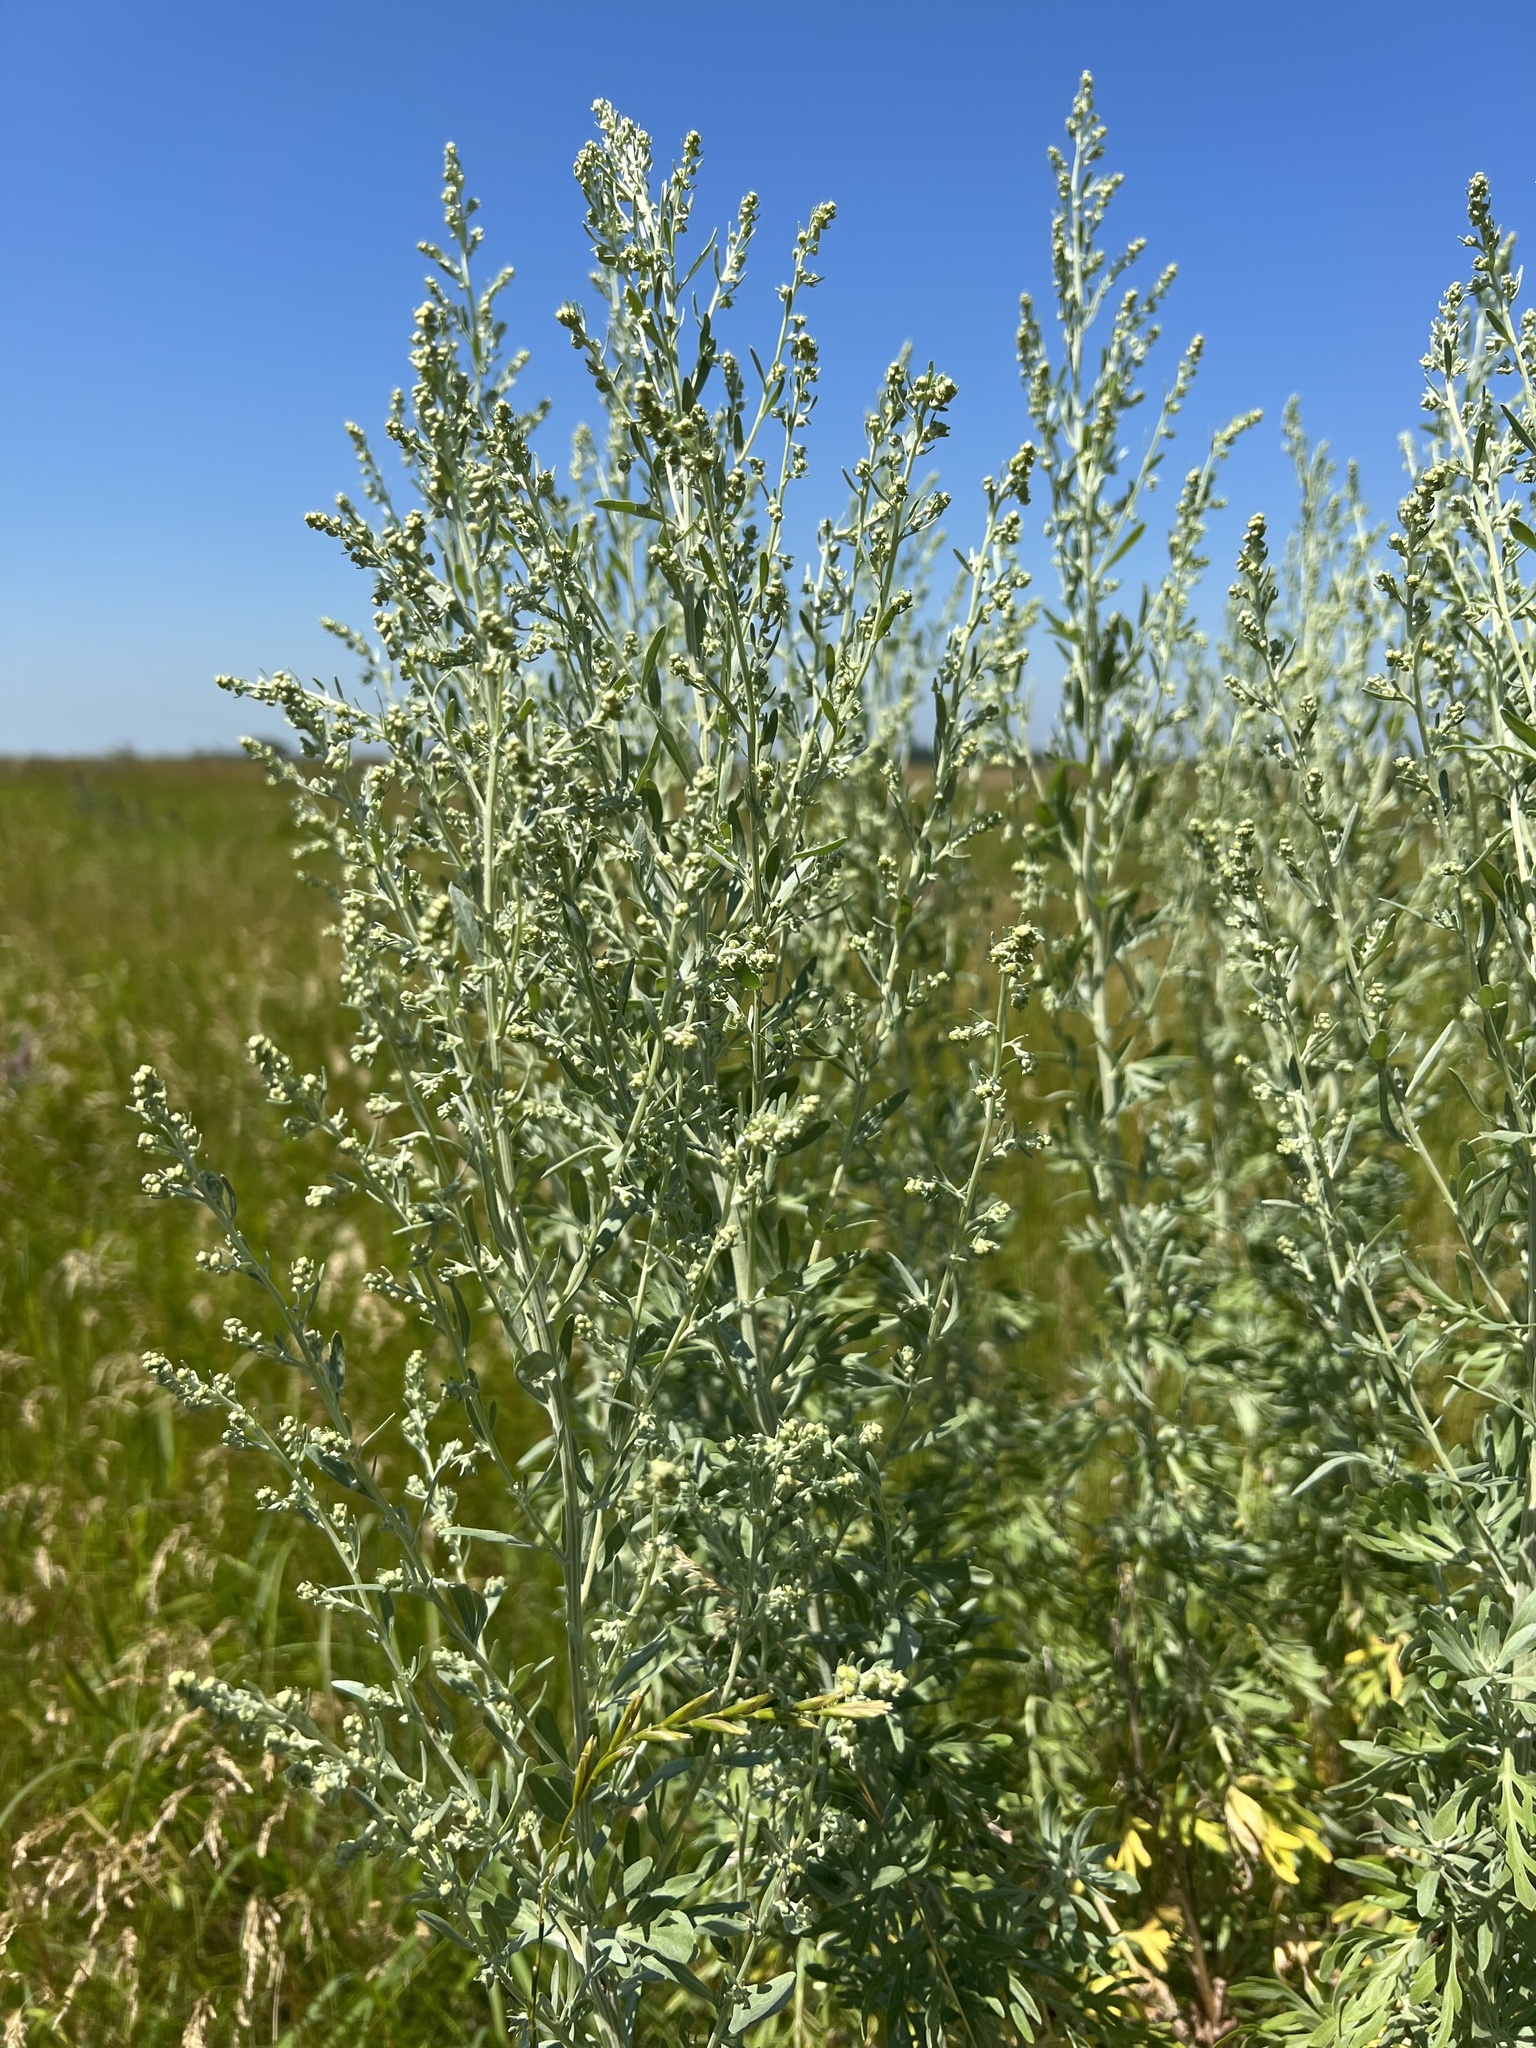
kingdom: Plantae
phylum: Tracheophyta
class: Magnoliopsida
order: Asterales
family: Asteraceae
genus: Artemisia
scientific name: Artemisia absinthium
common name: Wormwood
